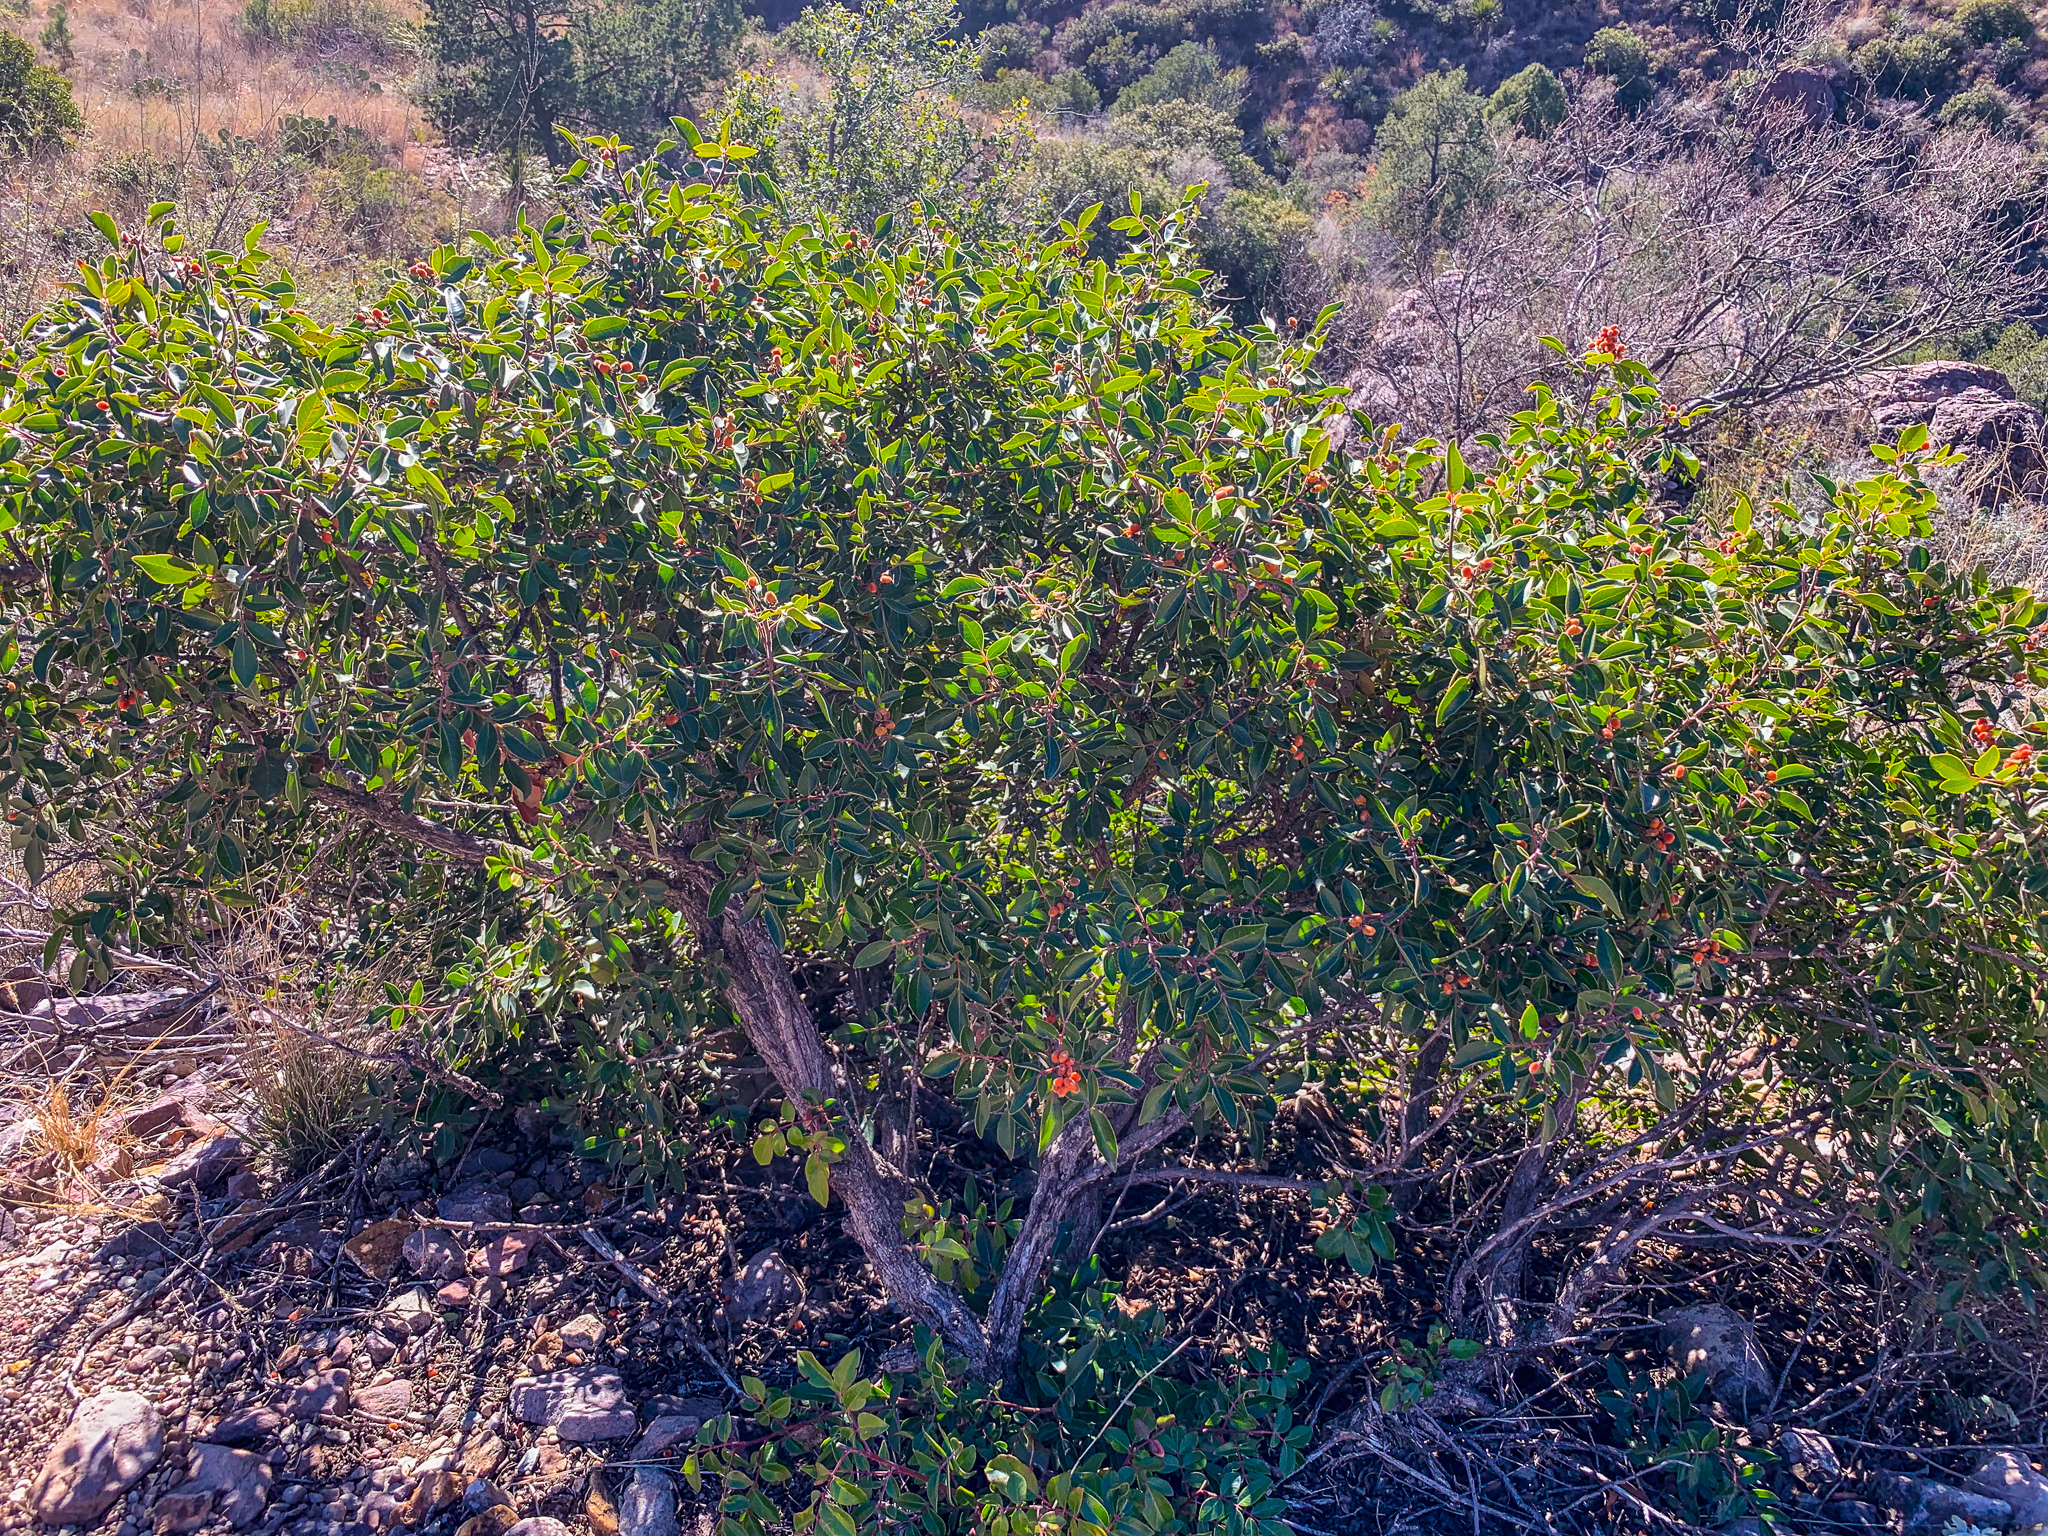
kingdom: Plantae
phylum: Tracheophyta
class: Magnoliopsida
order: Sapindales
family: Anacardiaceae
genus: Rhus
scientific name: Rhus virens
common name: Evergreen sumac
